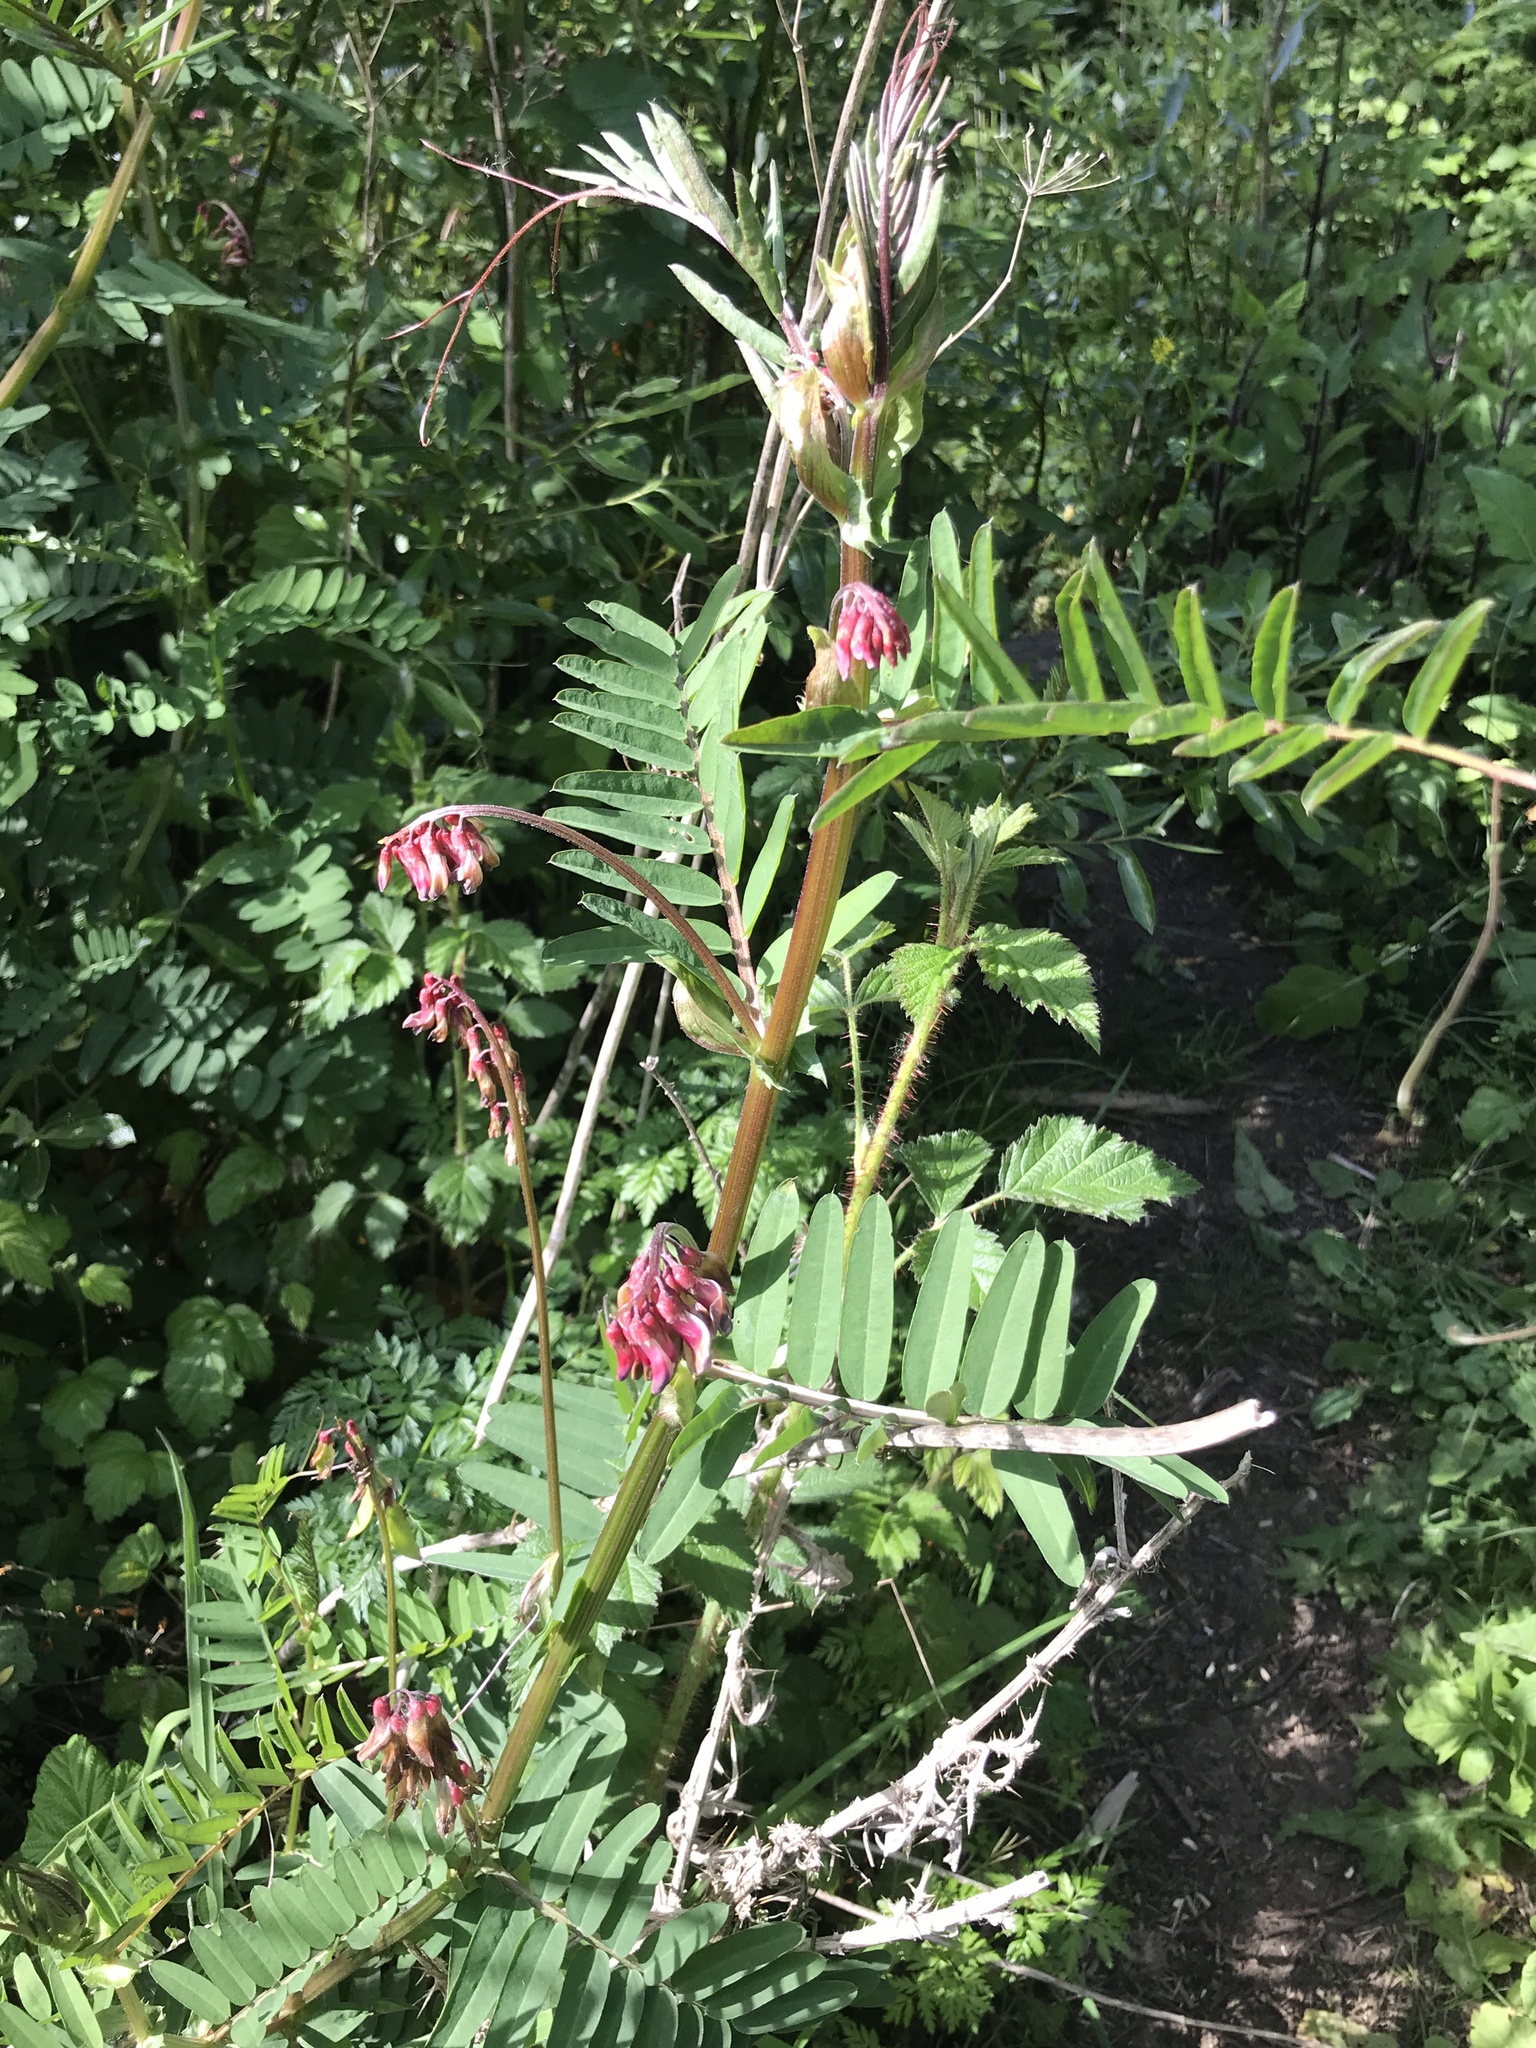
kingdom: Plantae
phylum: Tracheophyta
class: Magnoliopsida
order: Fabales
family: Fabaceae
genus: Vicia
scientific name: Vicia
